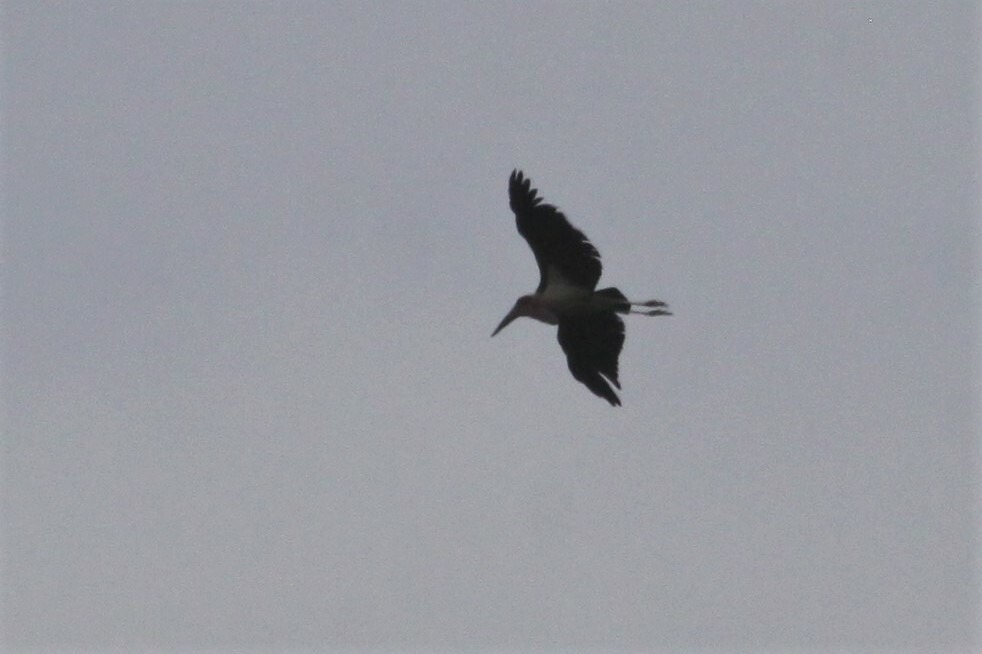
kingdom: Animalia
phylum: Chordata
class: Aves
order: Ciconiiformes
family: Ciconiidae
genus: Leptoptilos
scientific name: Leptoptilos crumenifer
